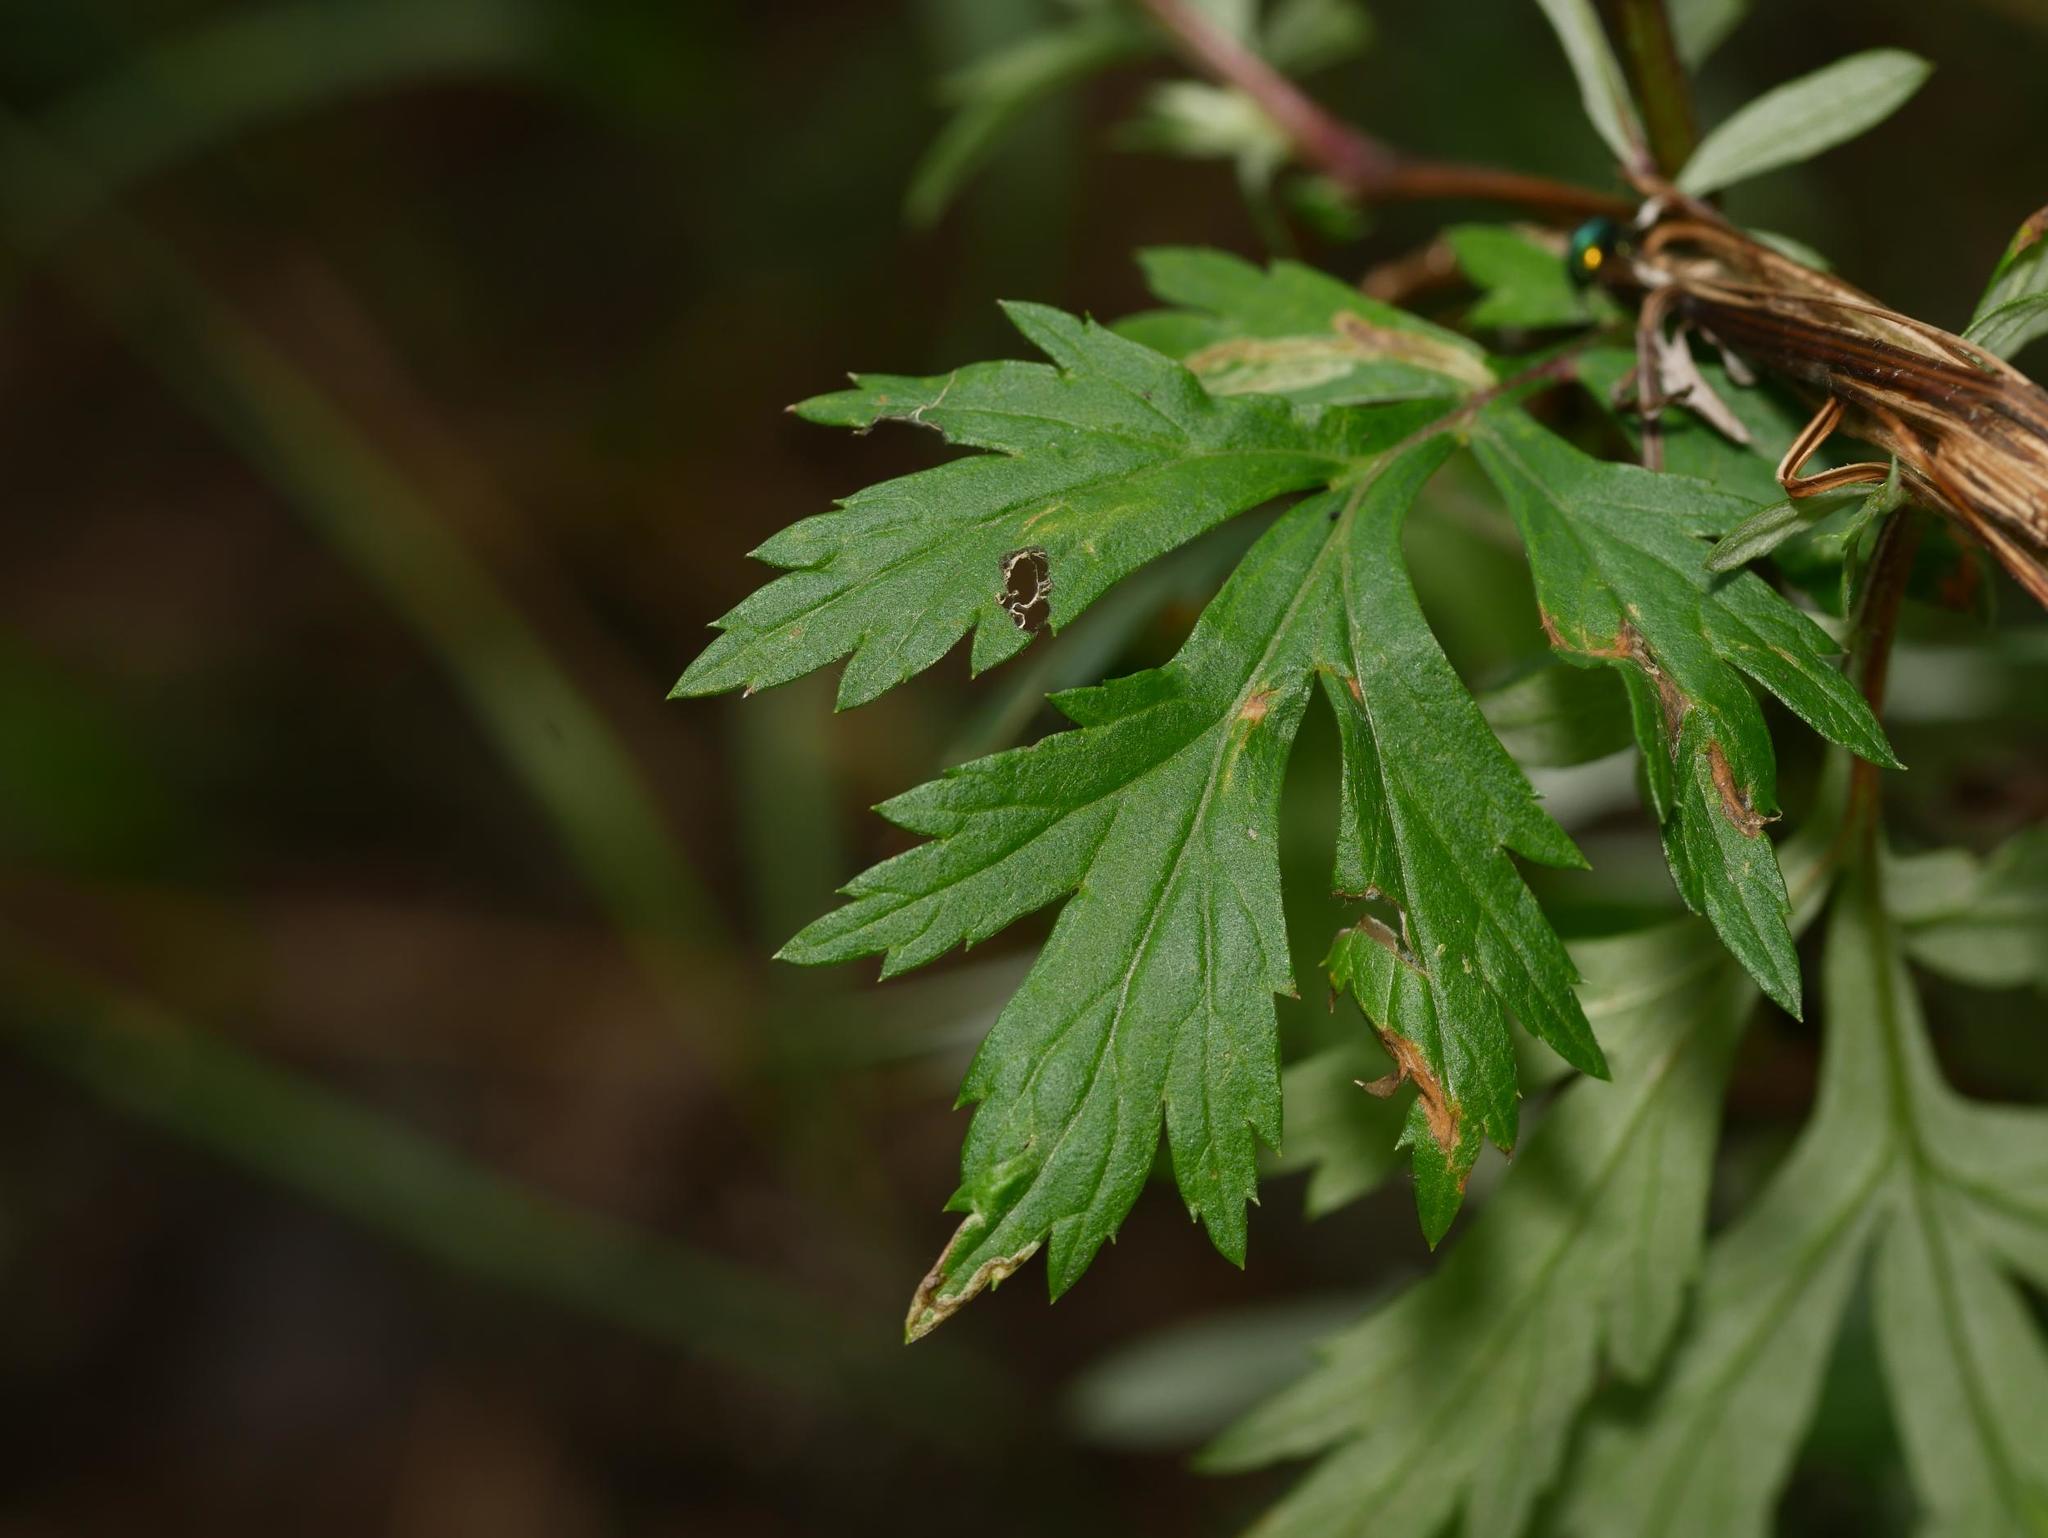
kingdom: Plantae
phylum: Tracheophyta
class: Magnoliopsida
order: Asterales
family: Asteraceae
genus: Artemisia
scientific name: Artemisia vulgaris
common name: Mugwort
